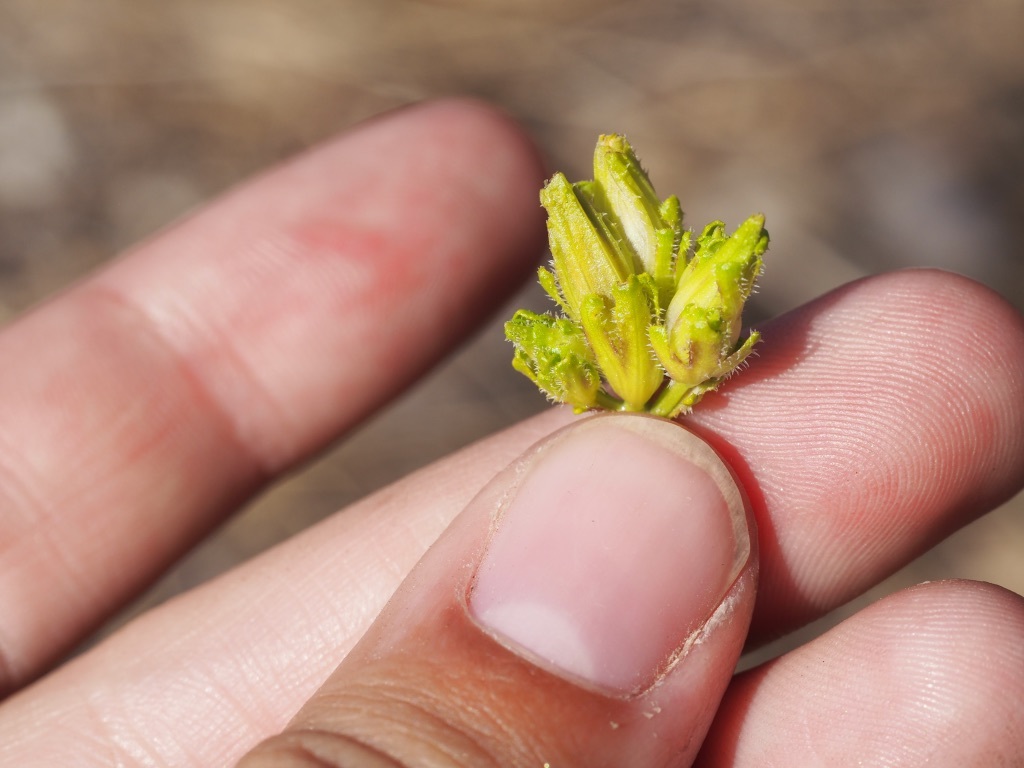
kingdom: Plantae
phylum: Tracheophyta
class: Magnoliopsida
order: Lamiales
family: Orobanchaceae
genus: Cordylanthus
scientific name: Cordylanthus rigidus
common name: Stiff-branch bird's-beak
